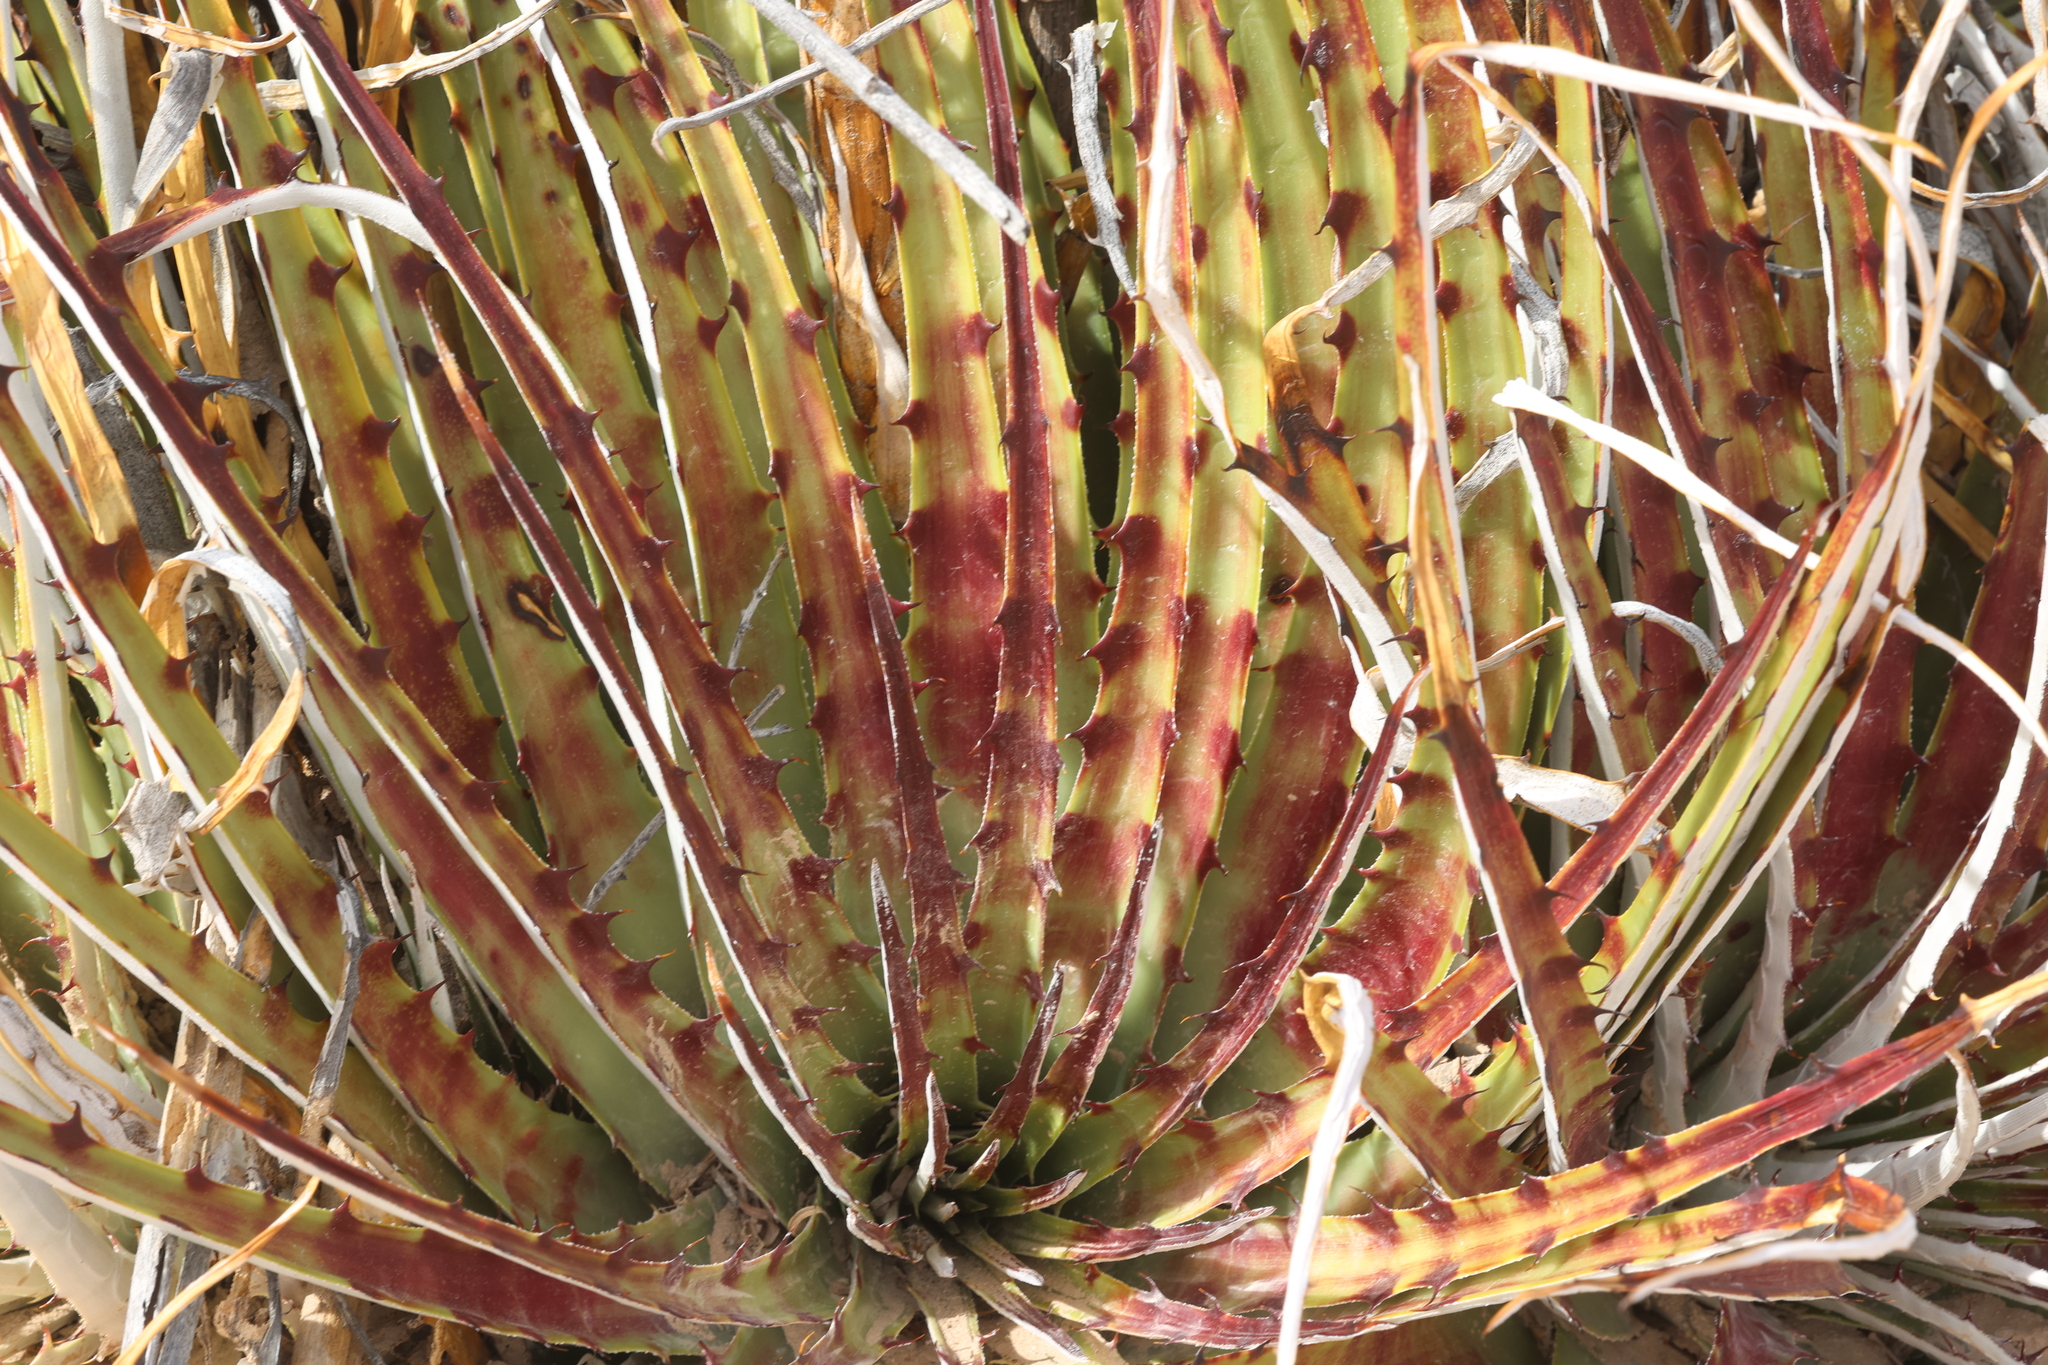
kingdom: Plantae
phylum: Tracheophyta
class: Liliopsida
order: Poales
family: Bromeliaceae
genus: Hechtia
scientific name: Hechtia texensis
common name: False agave
